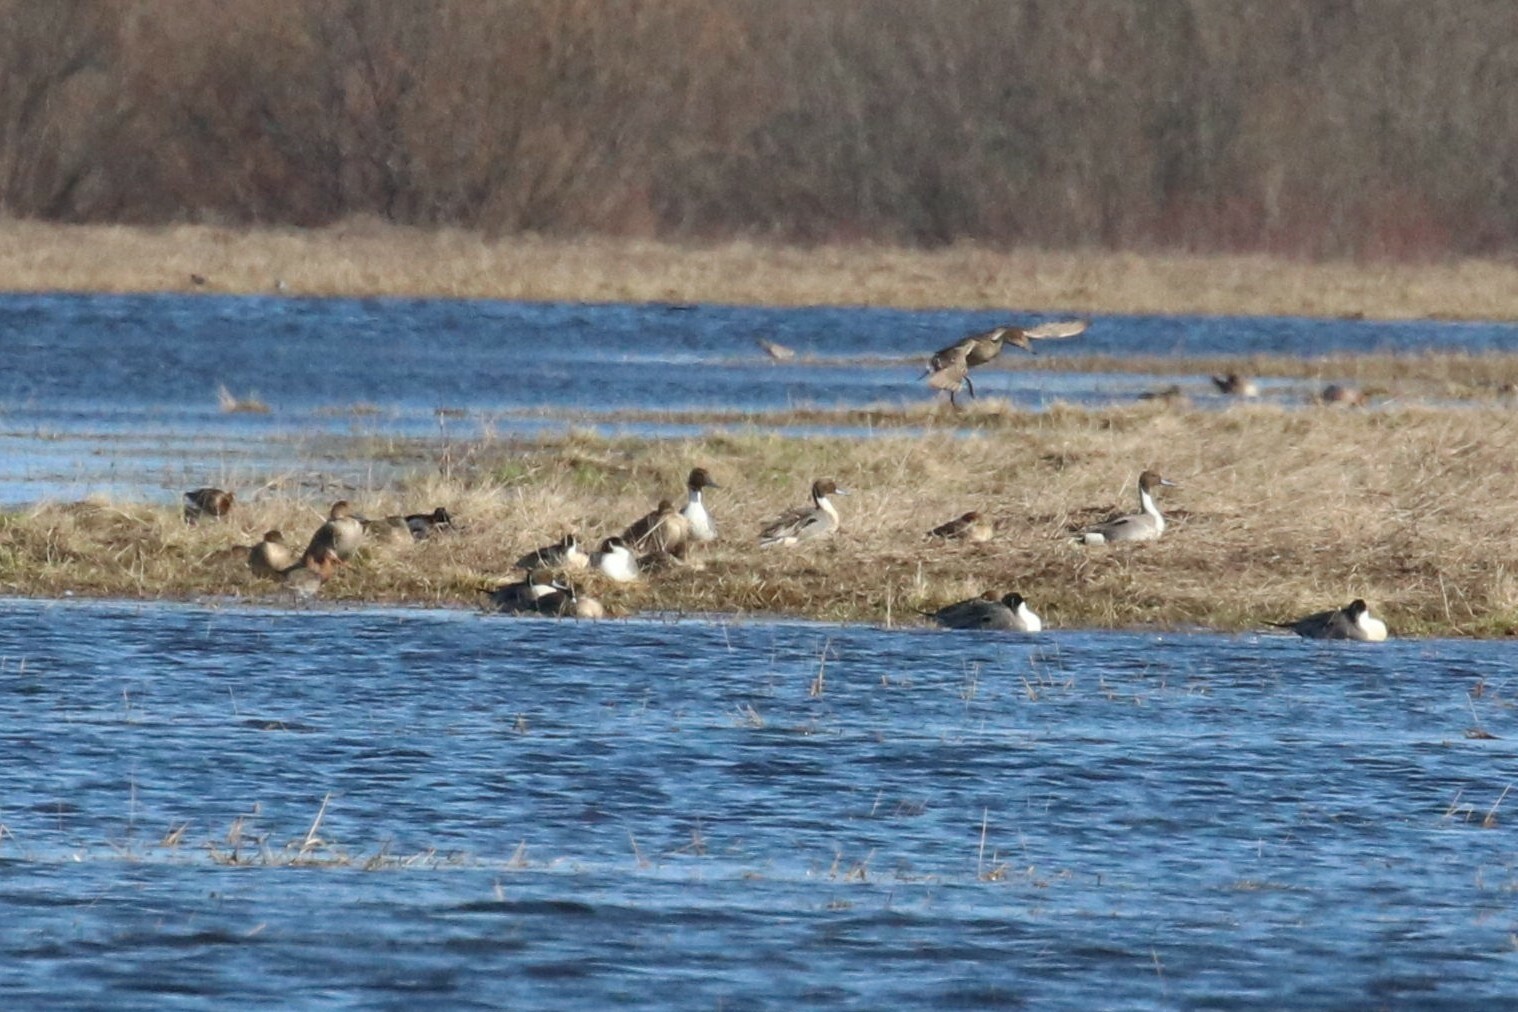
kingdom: Animalia
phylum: Chordata
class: Aves
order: Anseriformes
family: Anatidae
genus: Anas
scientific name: Anas acuta
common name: Northern pintail
